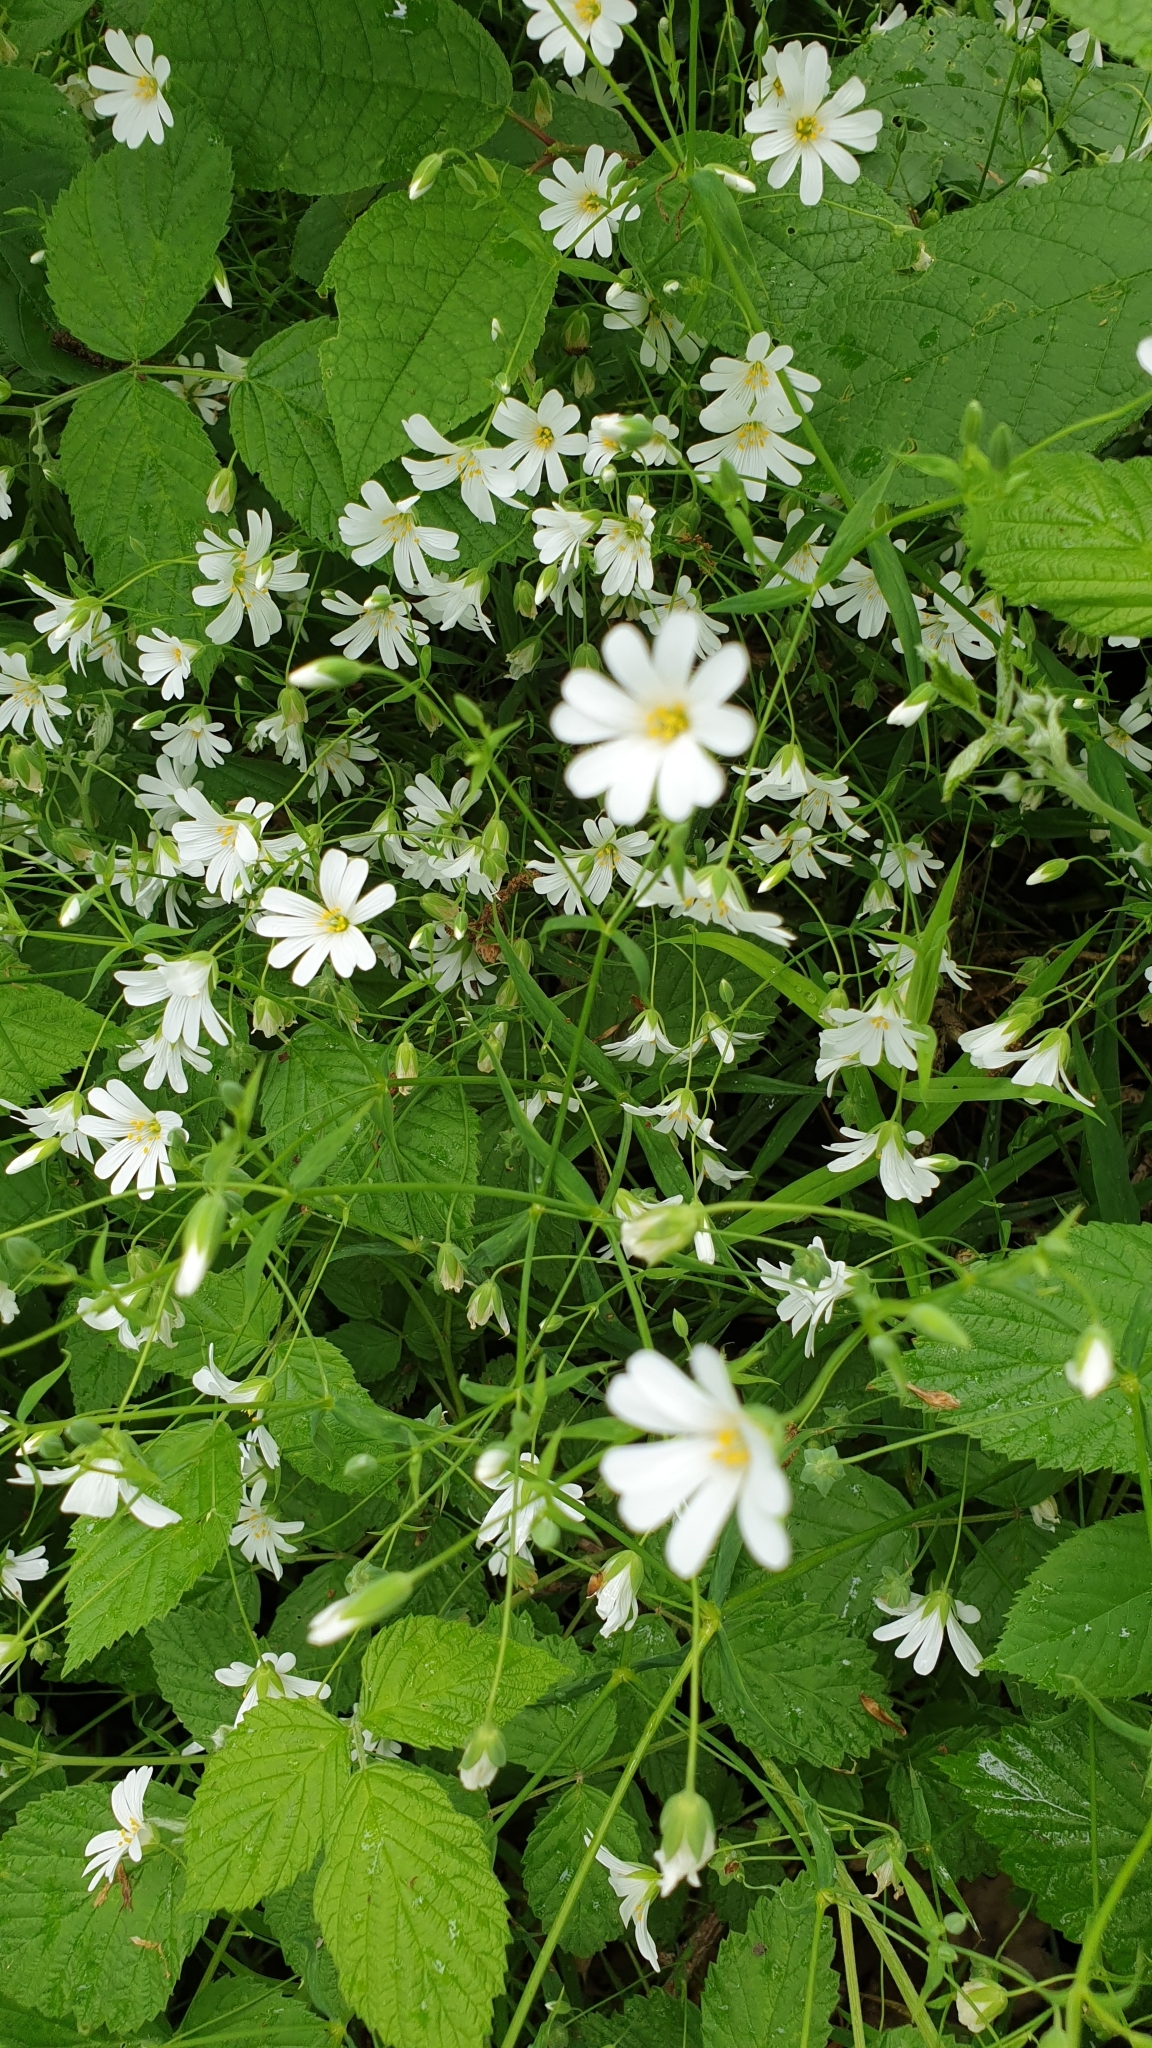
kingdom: Plantae
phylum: Tracheophyta
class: Magnoliopsida
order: Caryophyllales
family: Caryophyllaceae
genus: Rabelera
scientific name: Rabelera holostea
